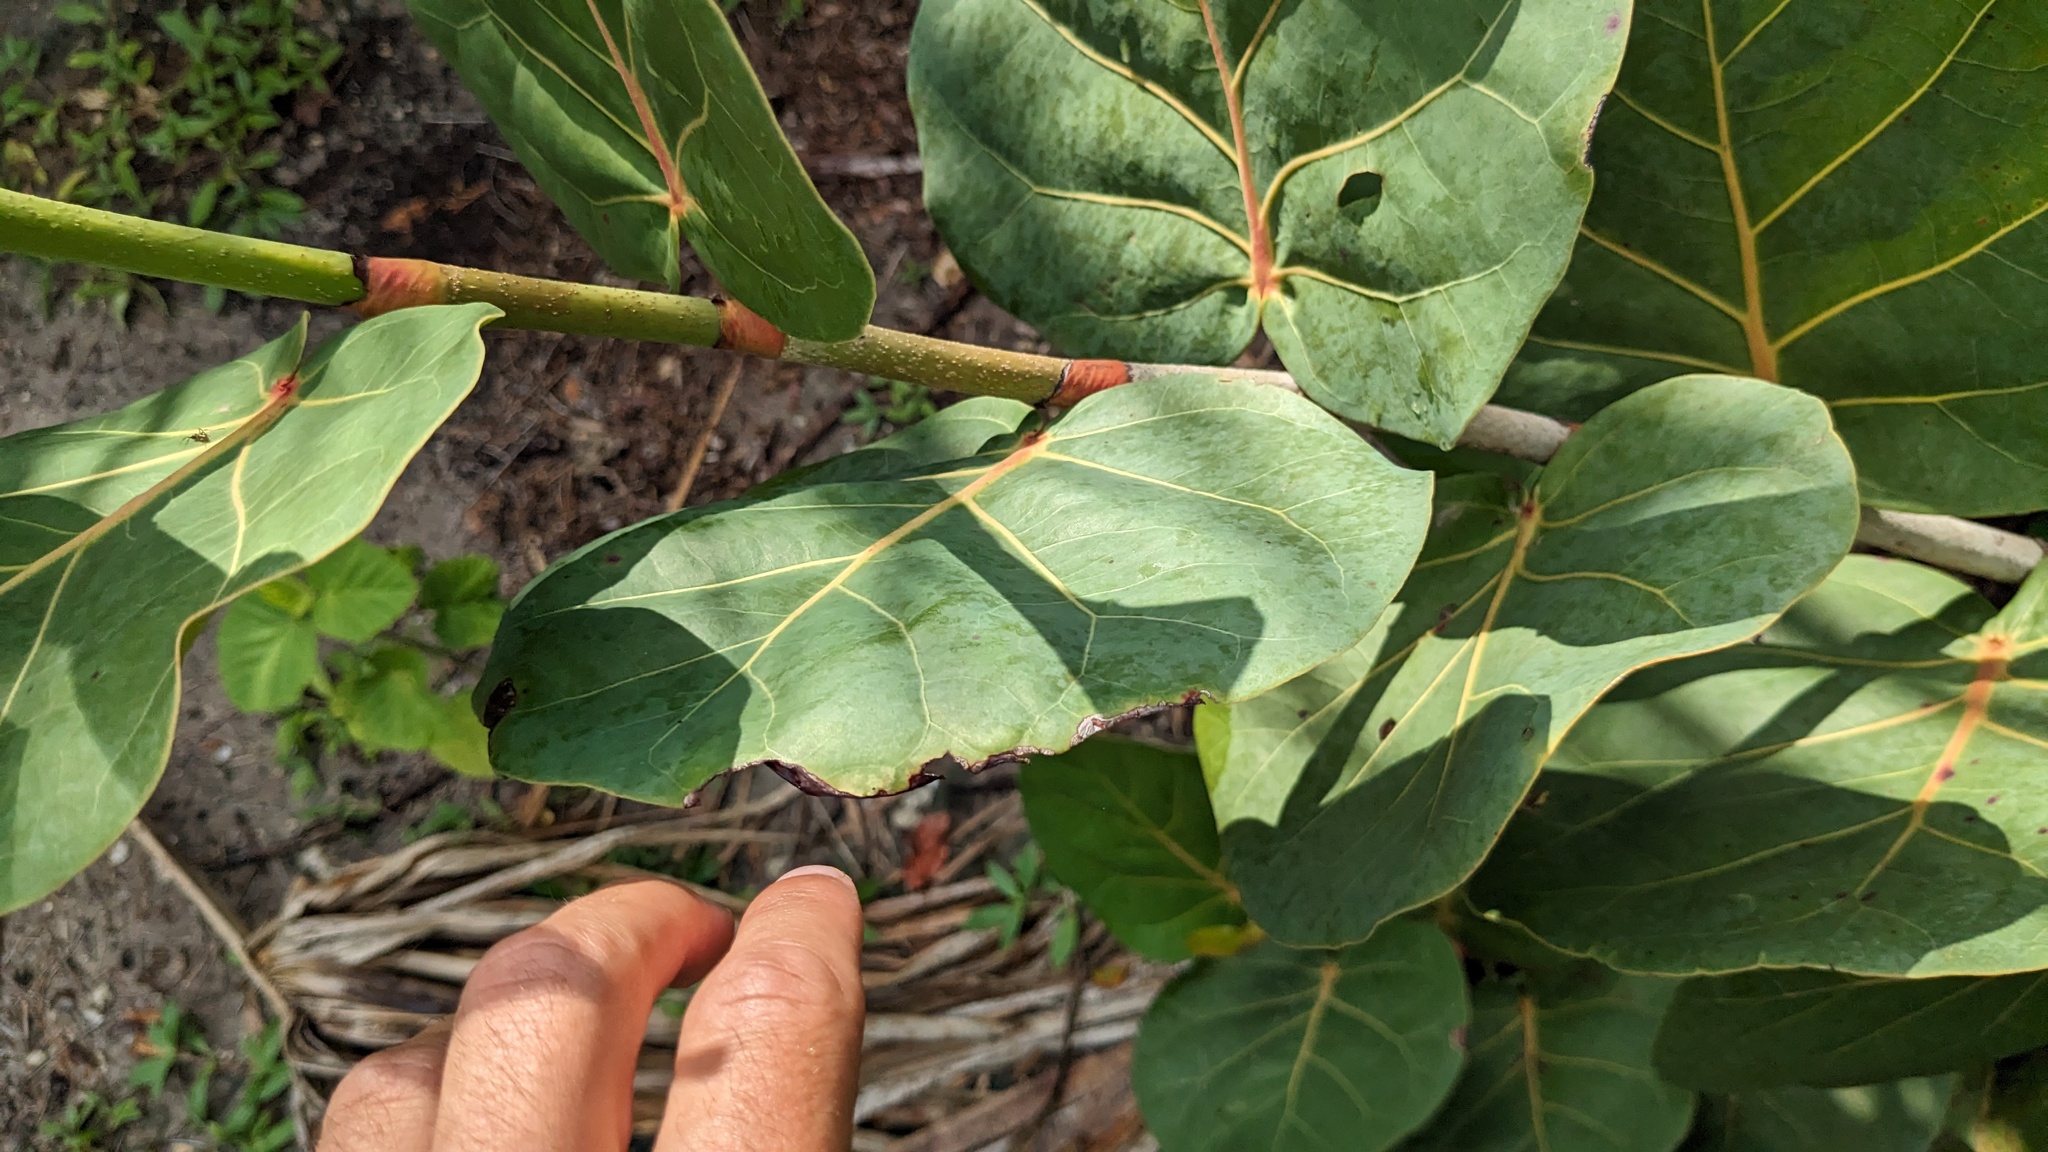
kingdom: Plantae
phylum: Tracheophyta
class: Magnoliopsida
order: Caryophyllales
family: Polygonaceae
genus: Coccoloba
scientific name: Coccoloba uvifera
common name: Seagrape
